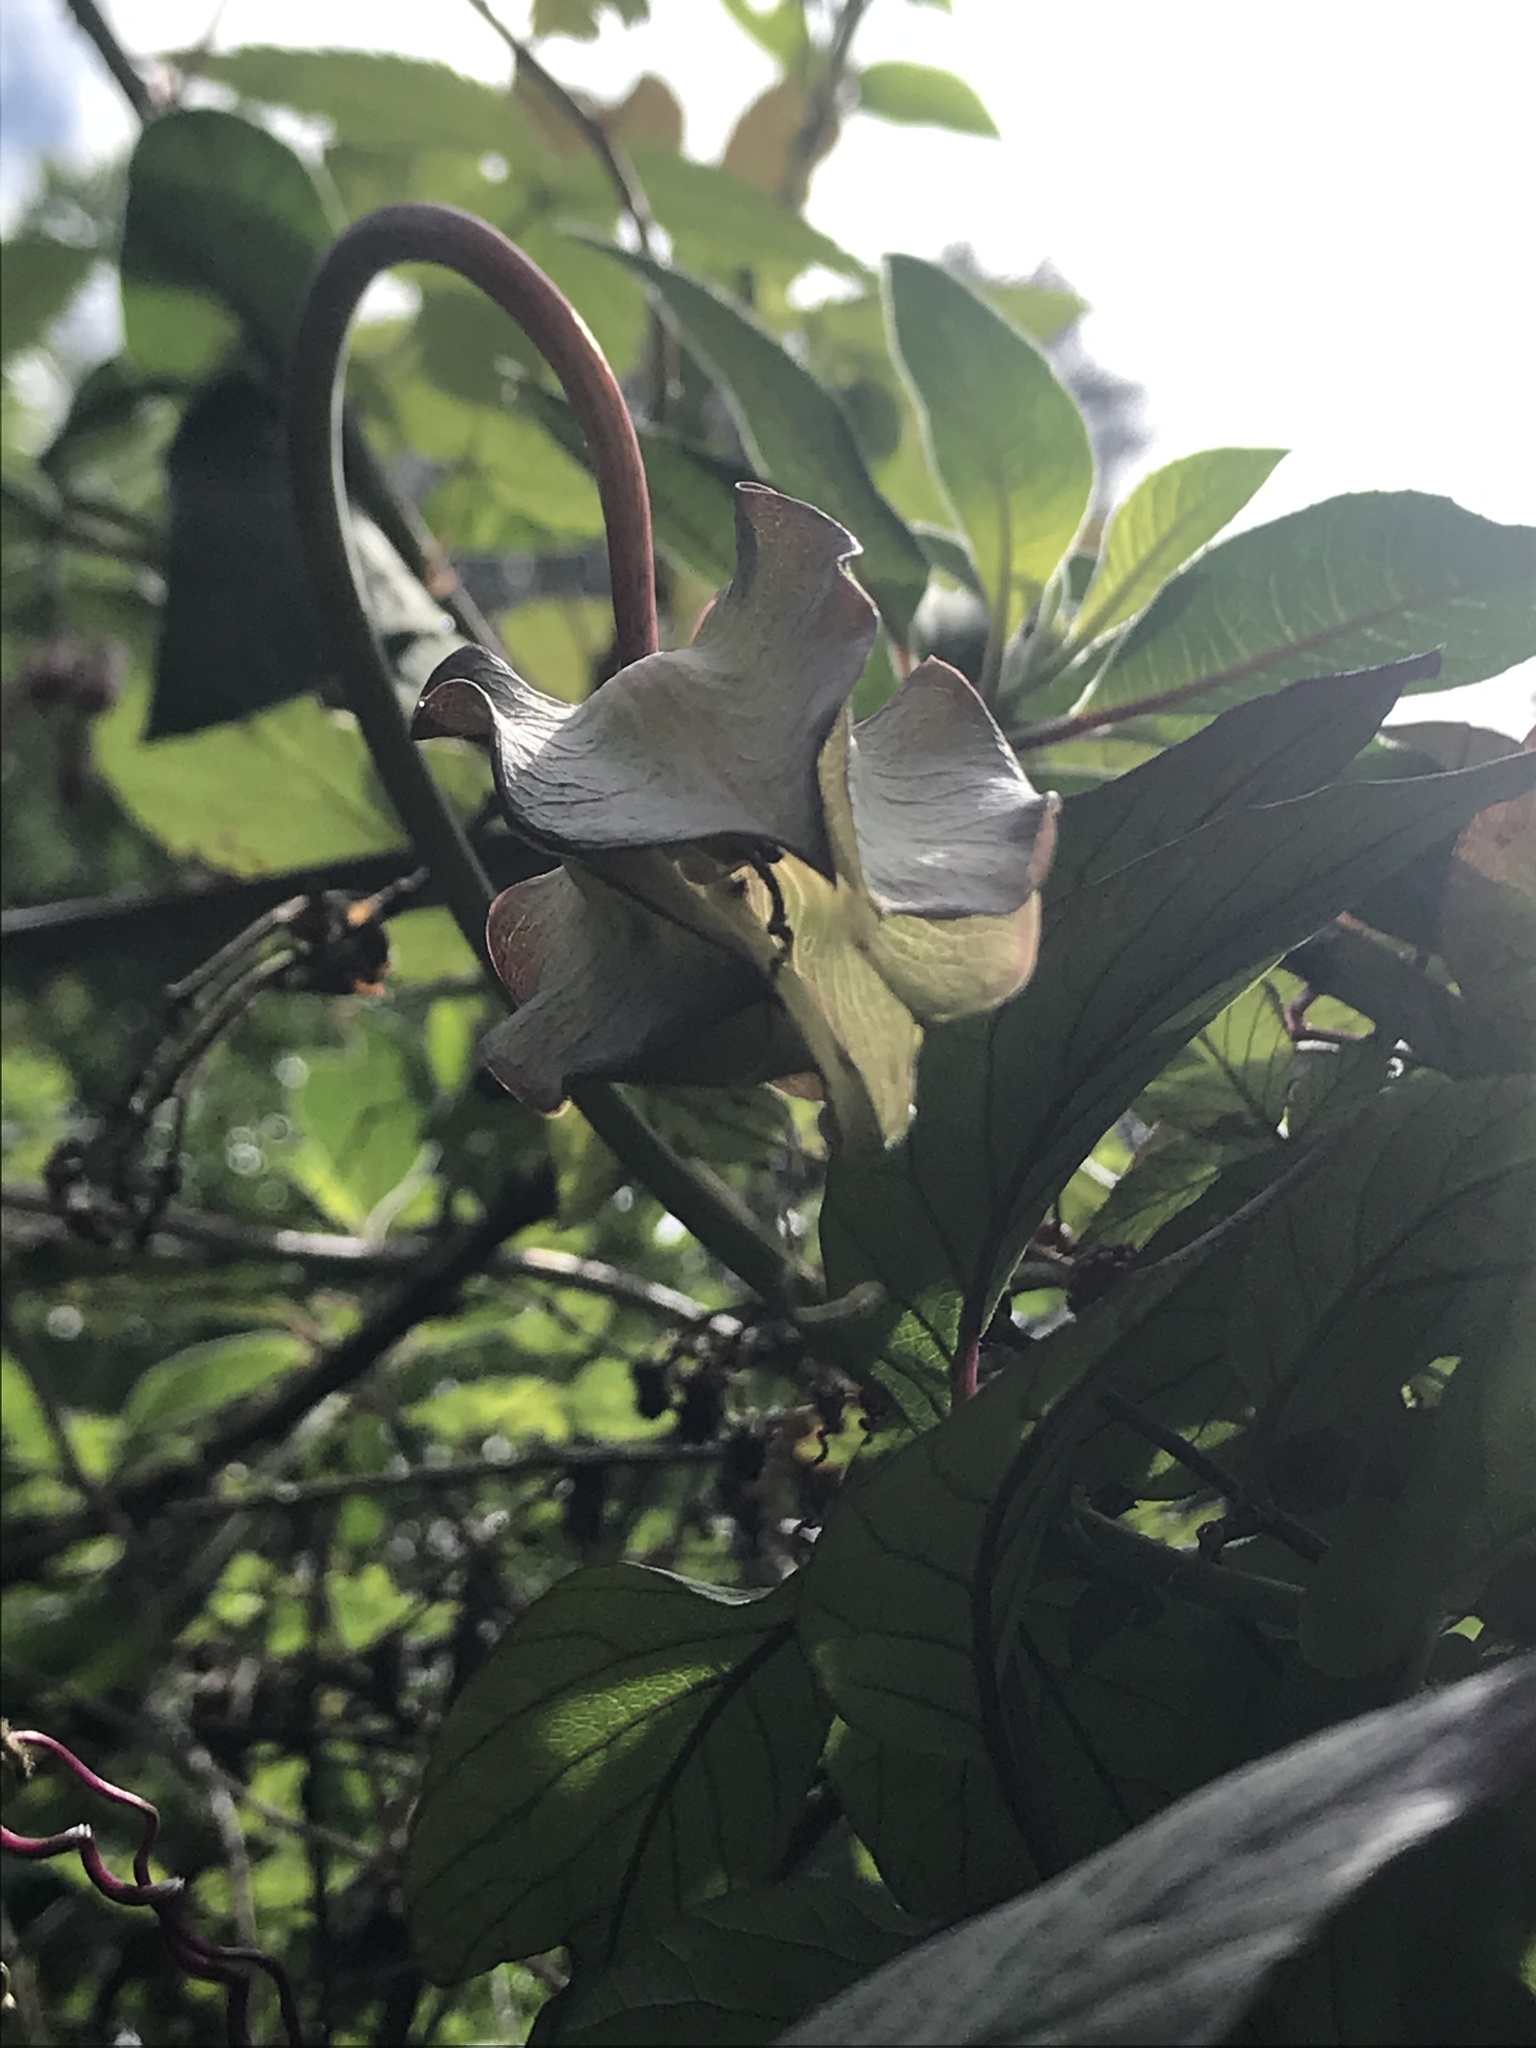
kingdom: Plantae
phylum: Tracheophyta
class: Magnoliopsida
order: Ericales
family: Polemoniaceae
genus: Cobaea
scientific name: Cobaea scandens
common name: Cup-and-saucer-vine
